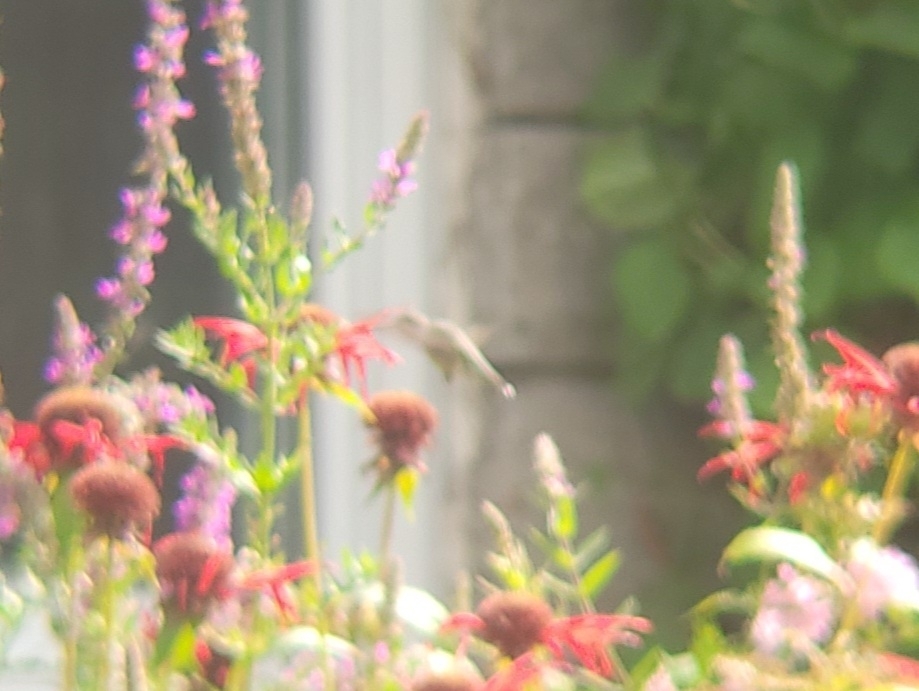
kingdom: Animalia
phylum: Chordata
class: Aves
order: Apodiformes
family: Trochilidae
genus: Archilochus
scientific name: Archilochus colubris
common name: Ruby-throated hummingbird
